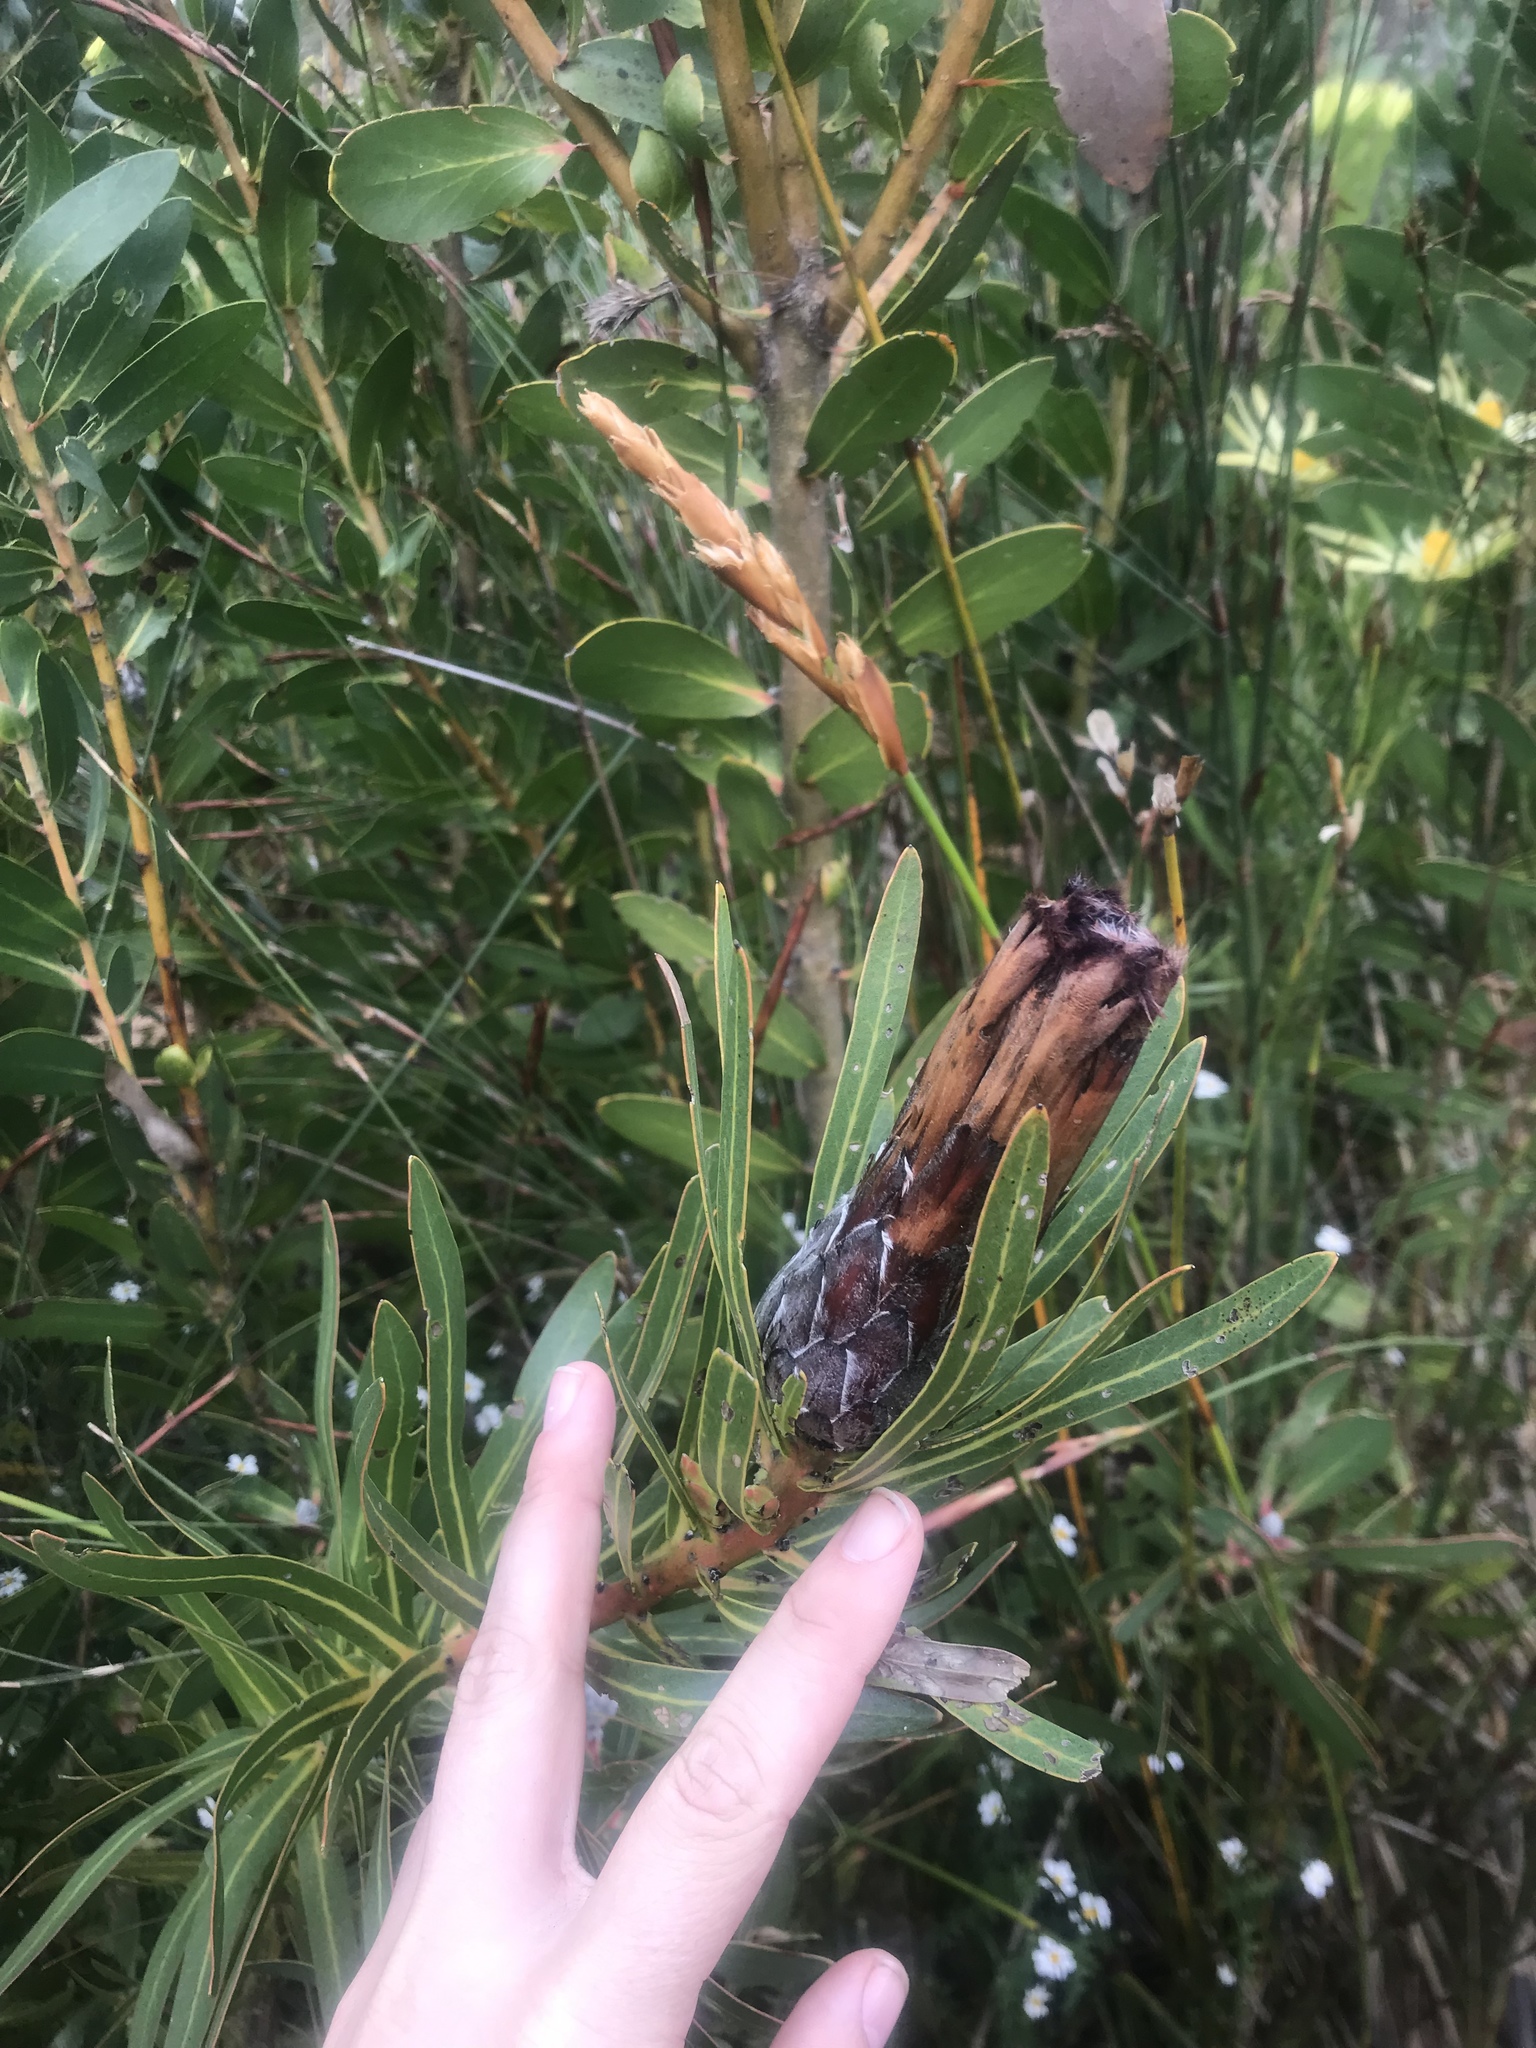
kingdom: Plantae
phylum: Tracheophyta
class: Magnoliopsida
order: Proteales
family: Proteaceae
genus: Protea
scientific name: Protea lepidocarpodendron
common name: Black-bearded protea
